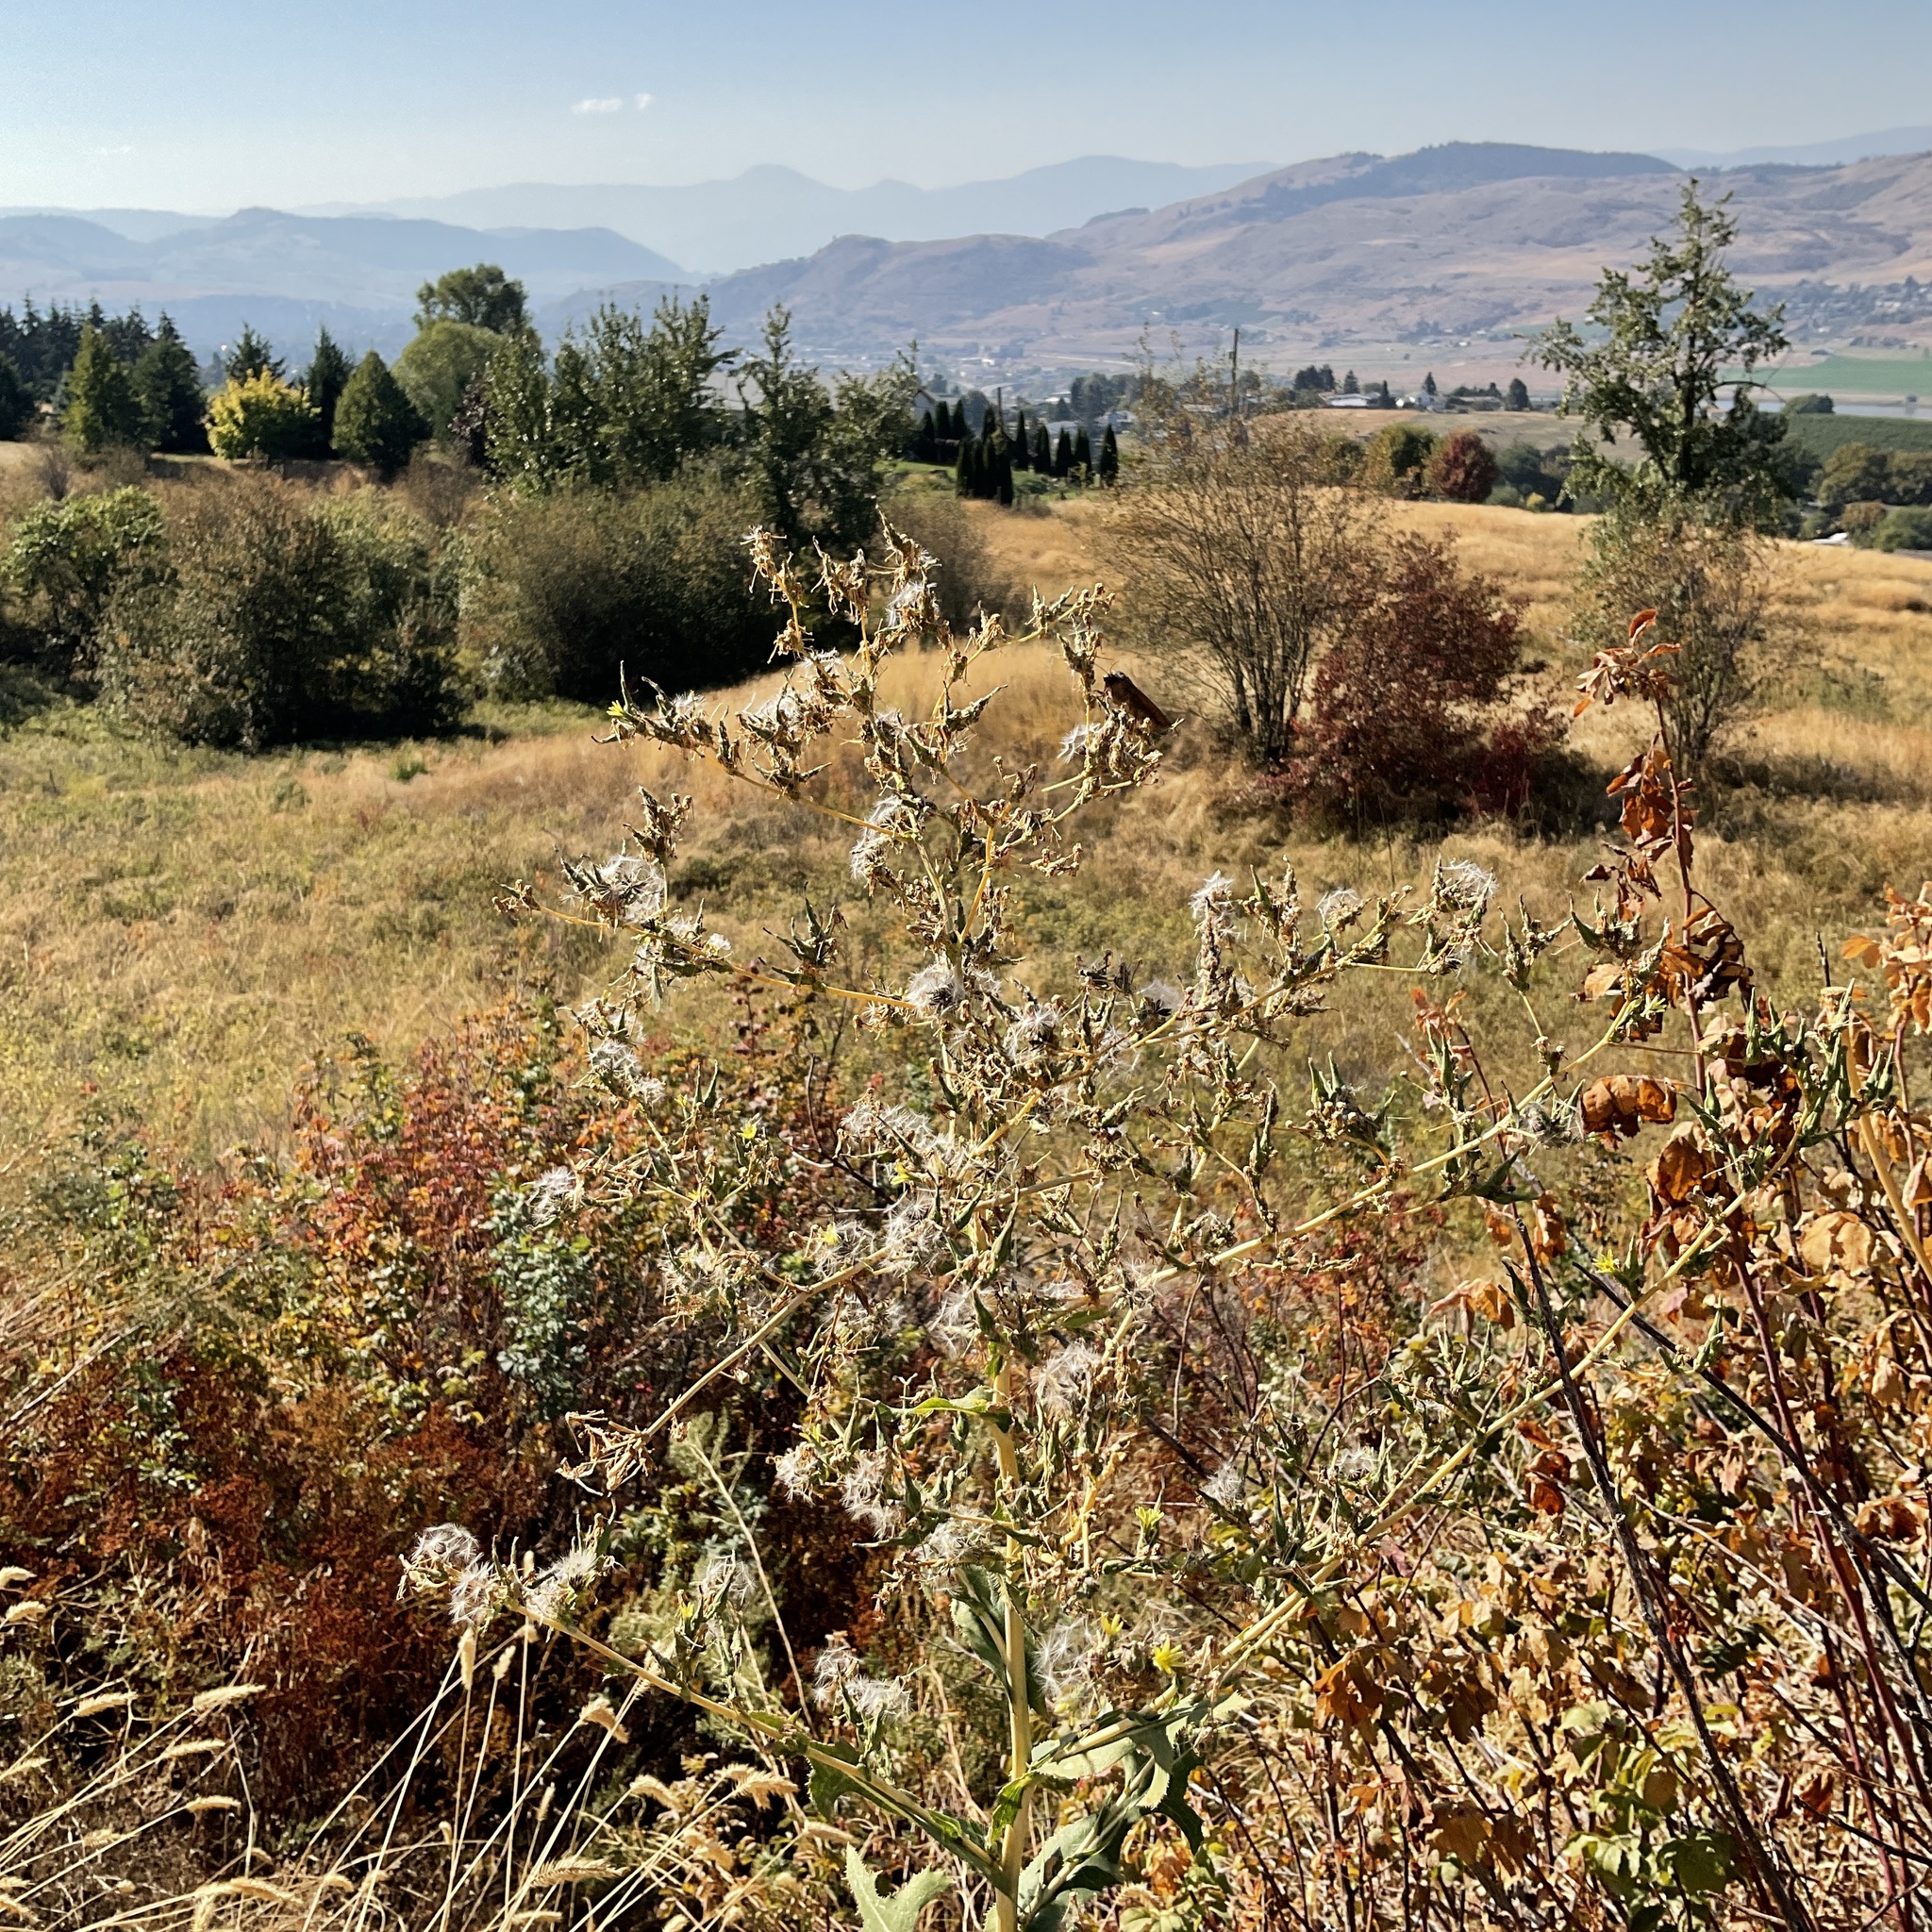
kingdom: Plantae
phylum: Tracheophyta
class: Magnoliopsida
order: Asterales
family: Asteraceae
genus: Lactuca
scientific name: Lactuca serriola
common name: Prickly lettuce
